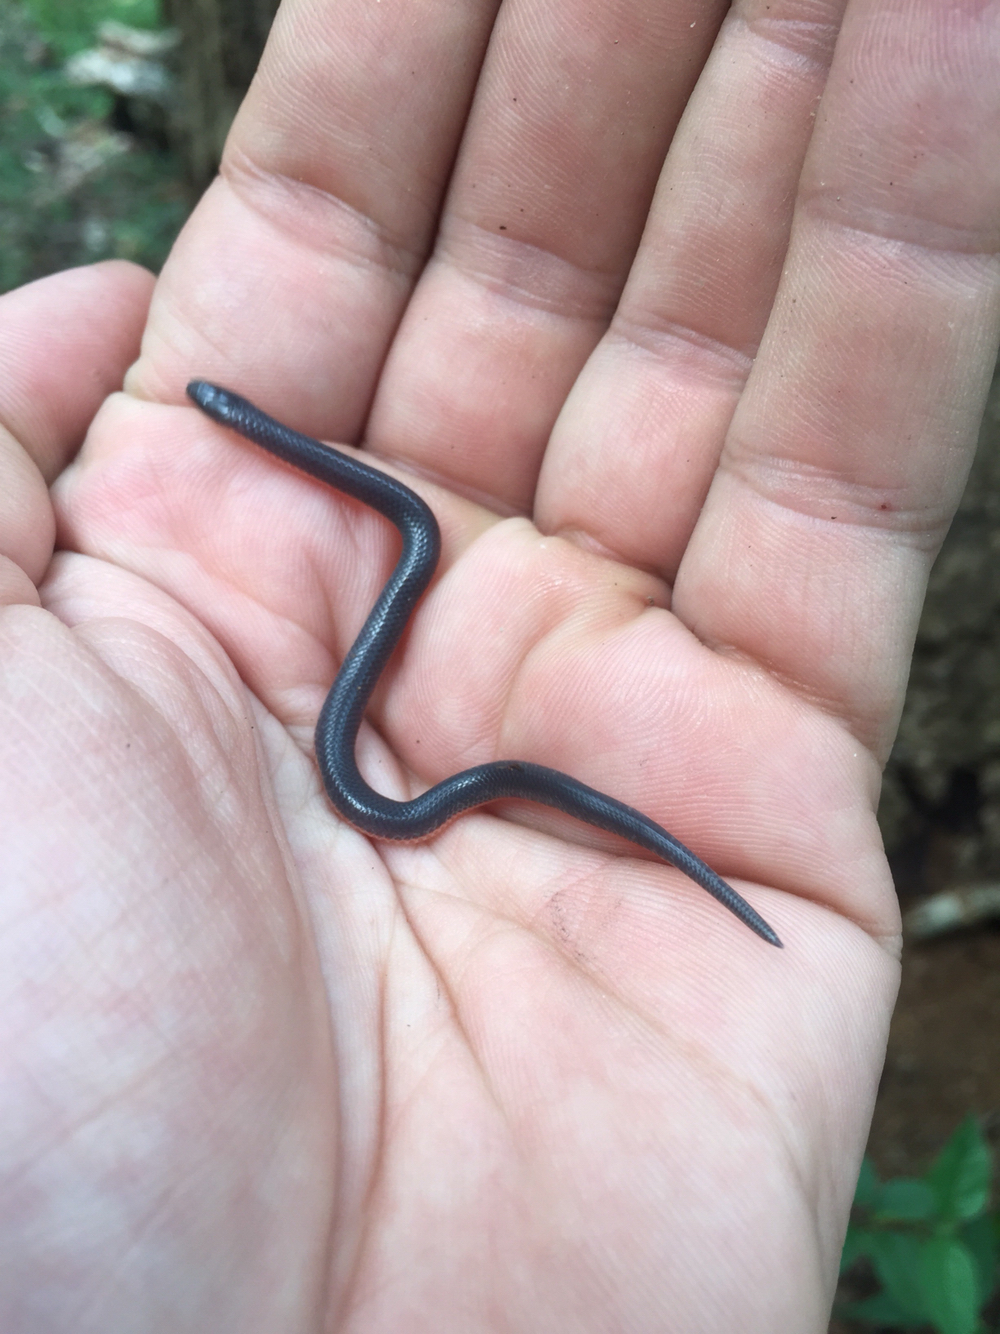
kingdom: Animalia
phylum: Chordata
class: Squamata
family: Colubridae
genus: Carphophis
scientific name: Carphophis amoenus
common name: Eastern worm snake
